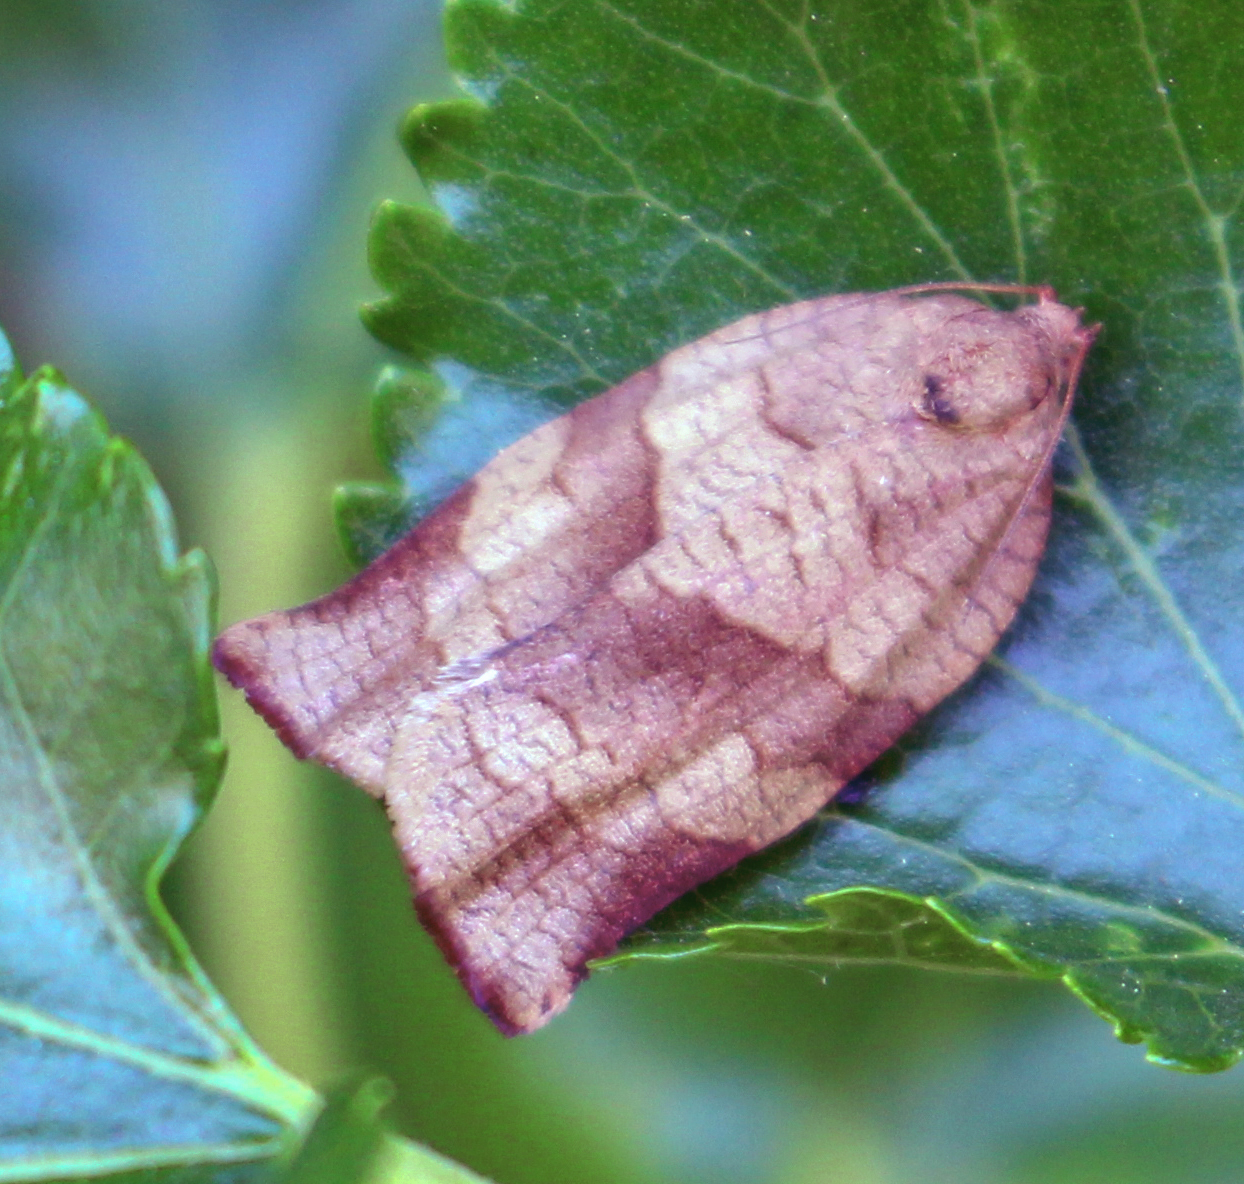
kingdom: Animalia
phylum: Arthropoda
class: Insecta
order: Lepidoptera
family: Tortricidae
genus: Choristoneura
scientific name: Choristoneura rosaceana
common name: Oblique-banded leafroller moth
